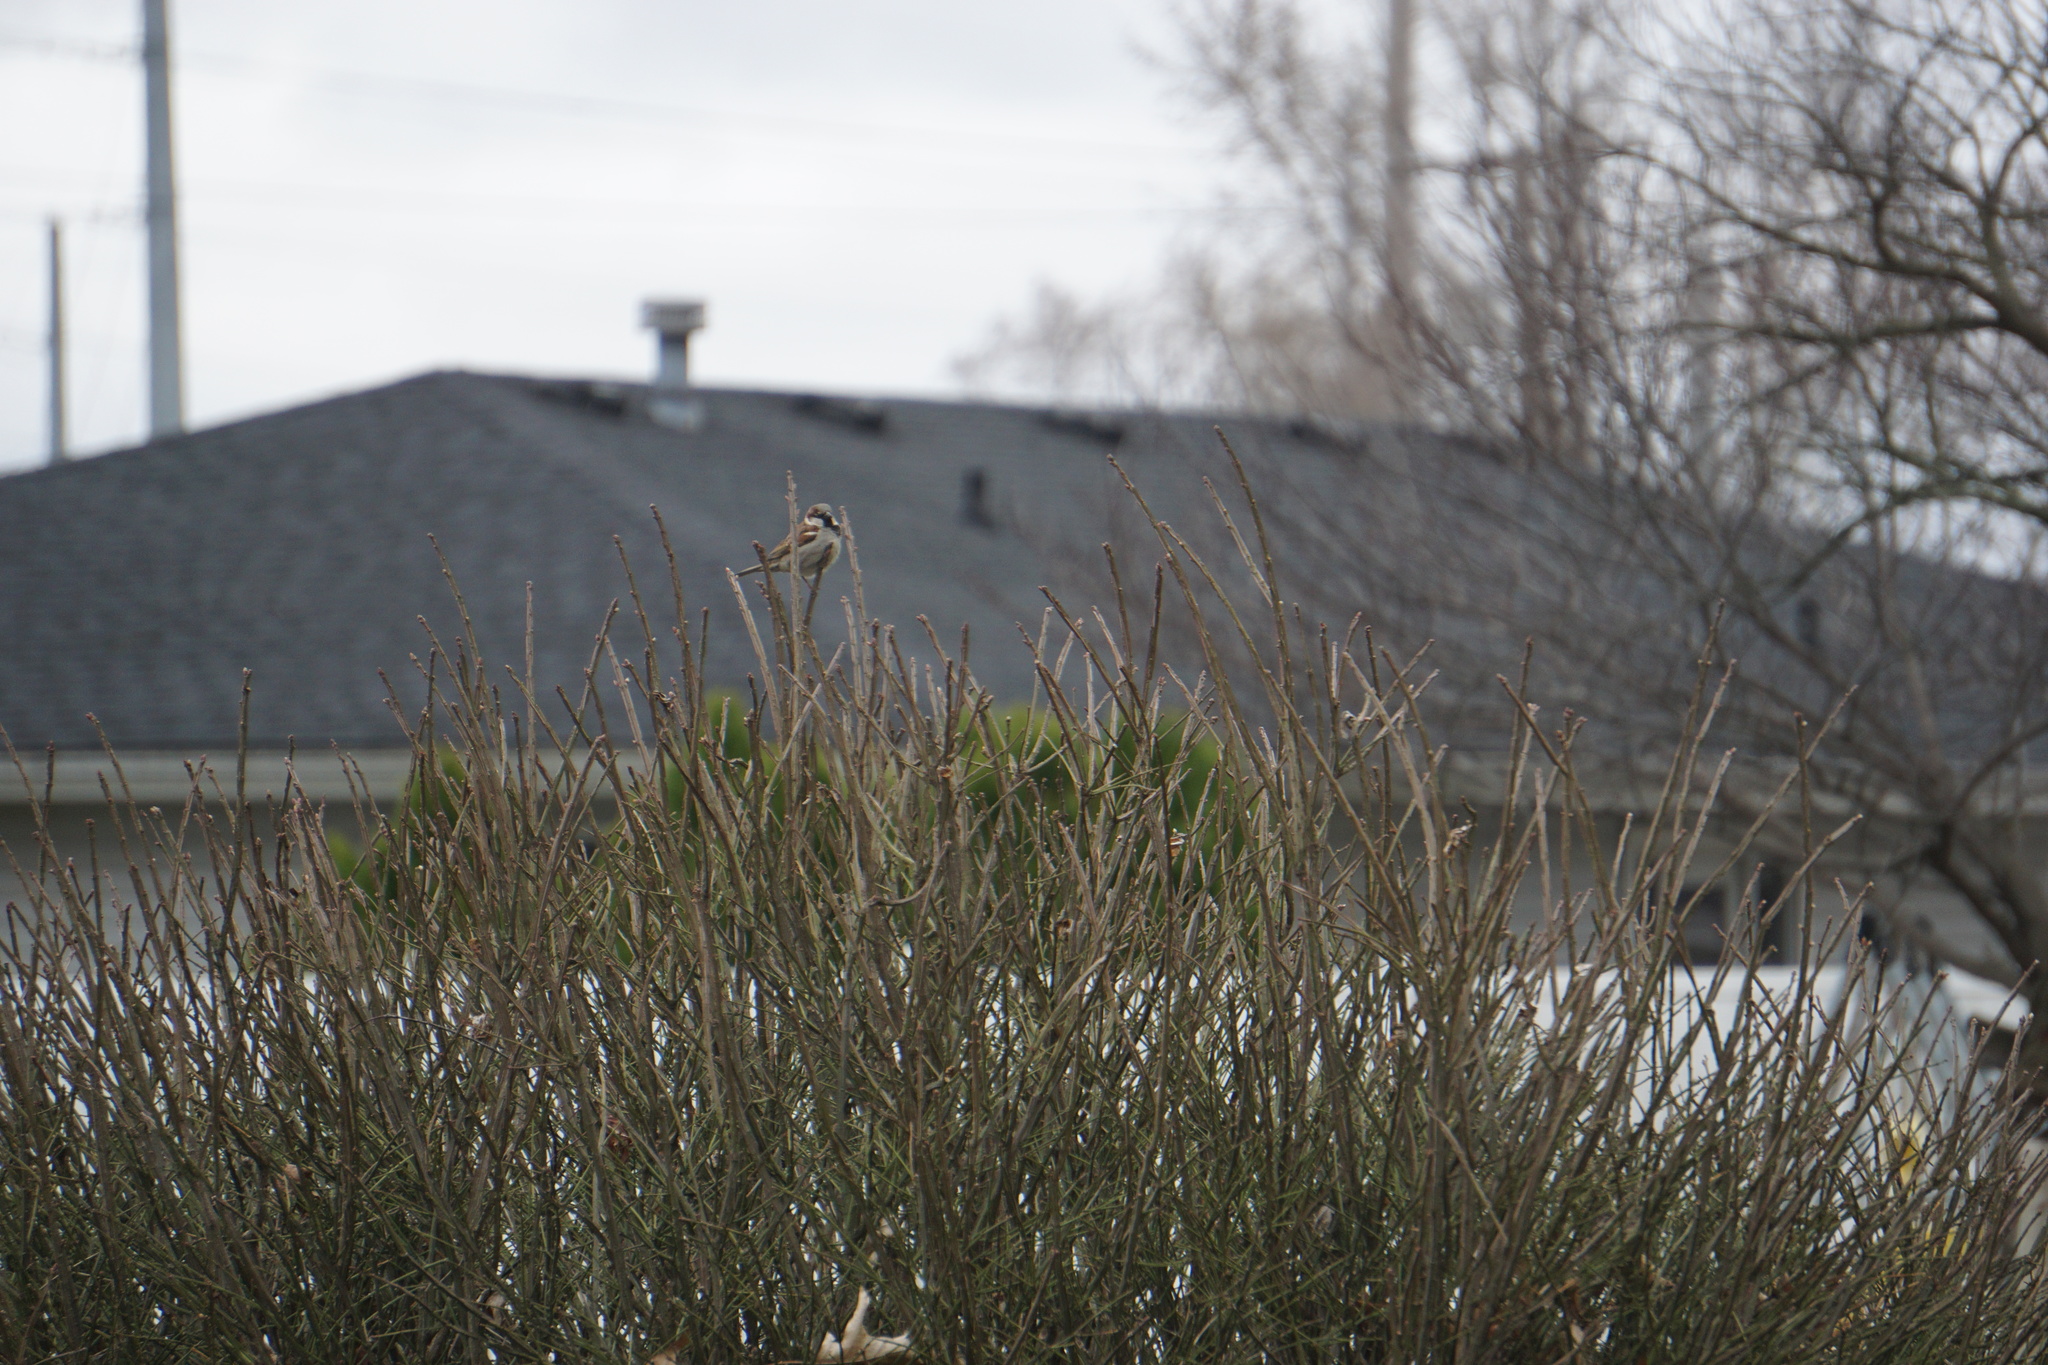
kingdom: Animalia
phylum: Chordata
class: Aves
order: Passeriformes
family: Passeridae
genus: Passer
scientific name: Passer domesticus
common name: House sparrow
